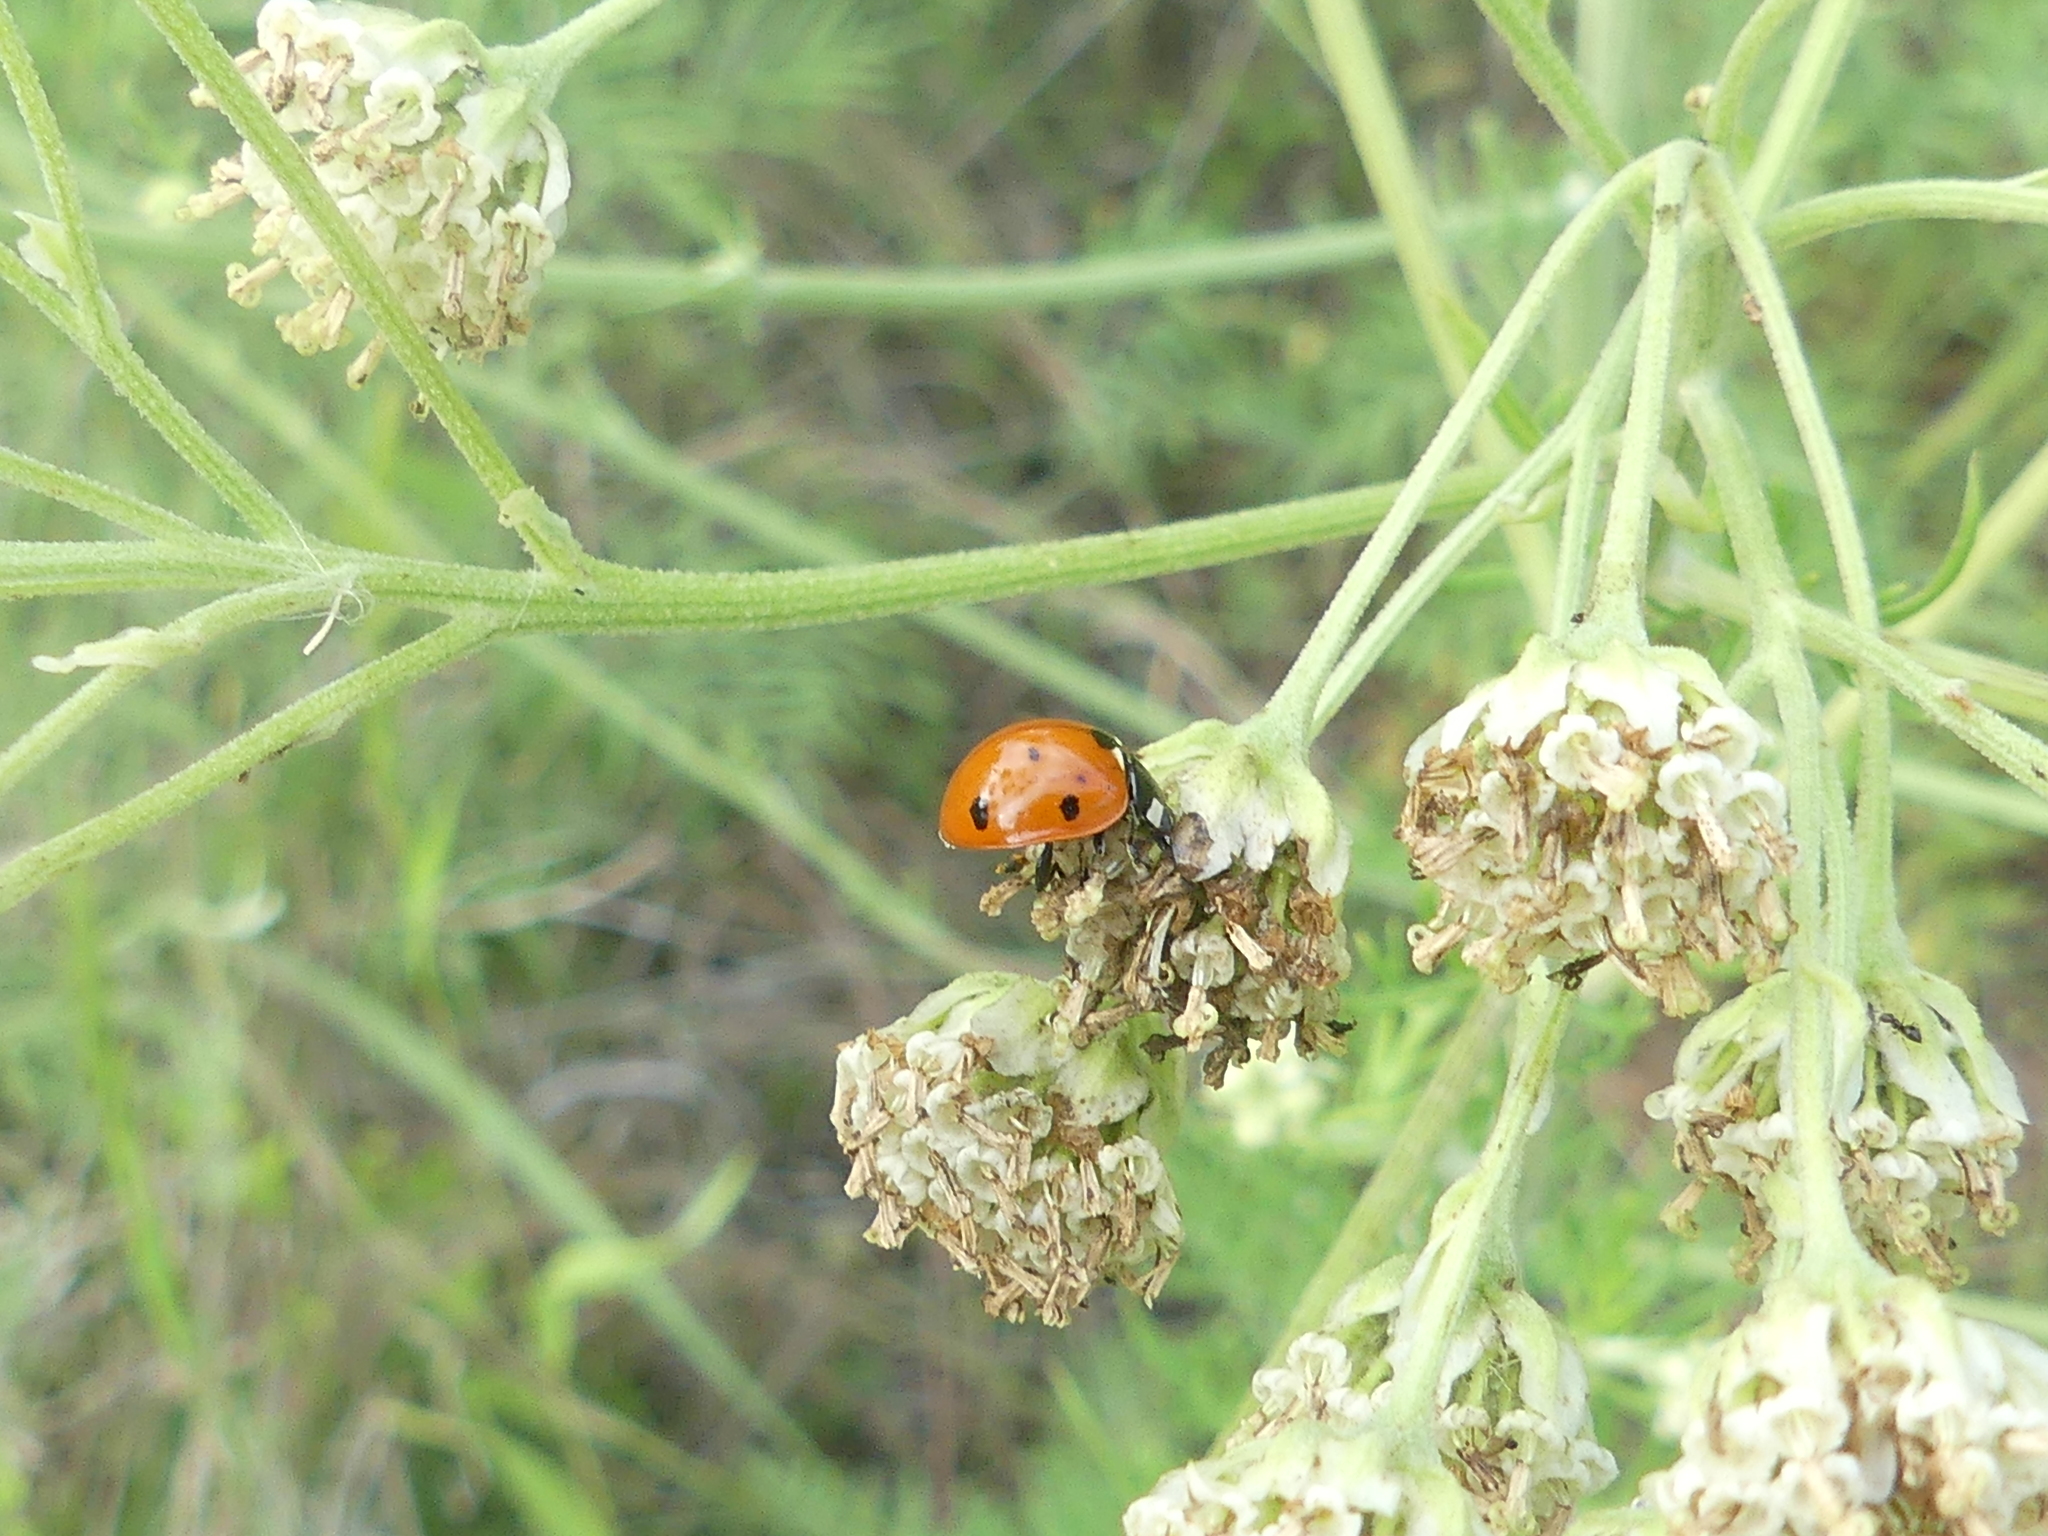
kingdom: Animalia
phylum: Arthropoda
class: Insecta
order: Coleoptera
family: Coccinellidae
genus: Coccinella
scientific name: Coccinella septempunctata
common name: Sevenspotted lady beetle
